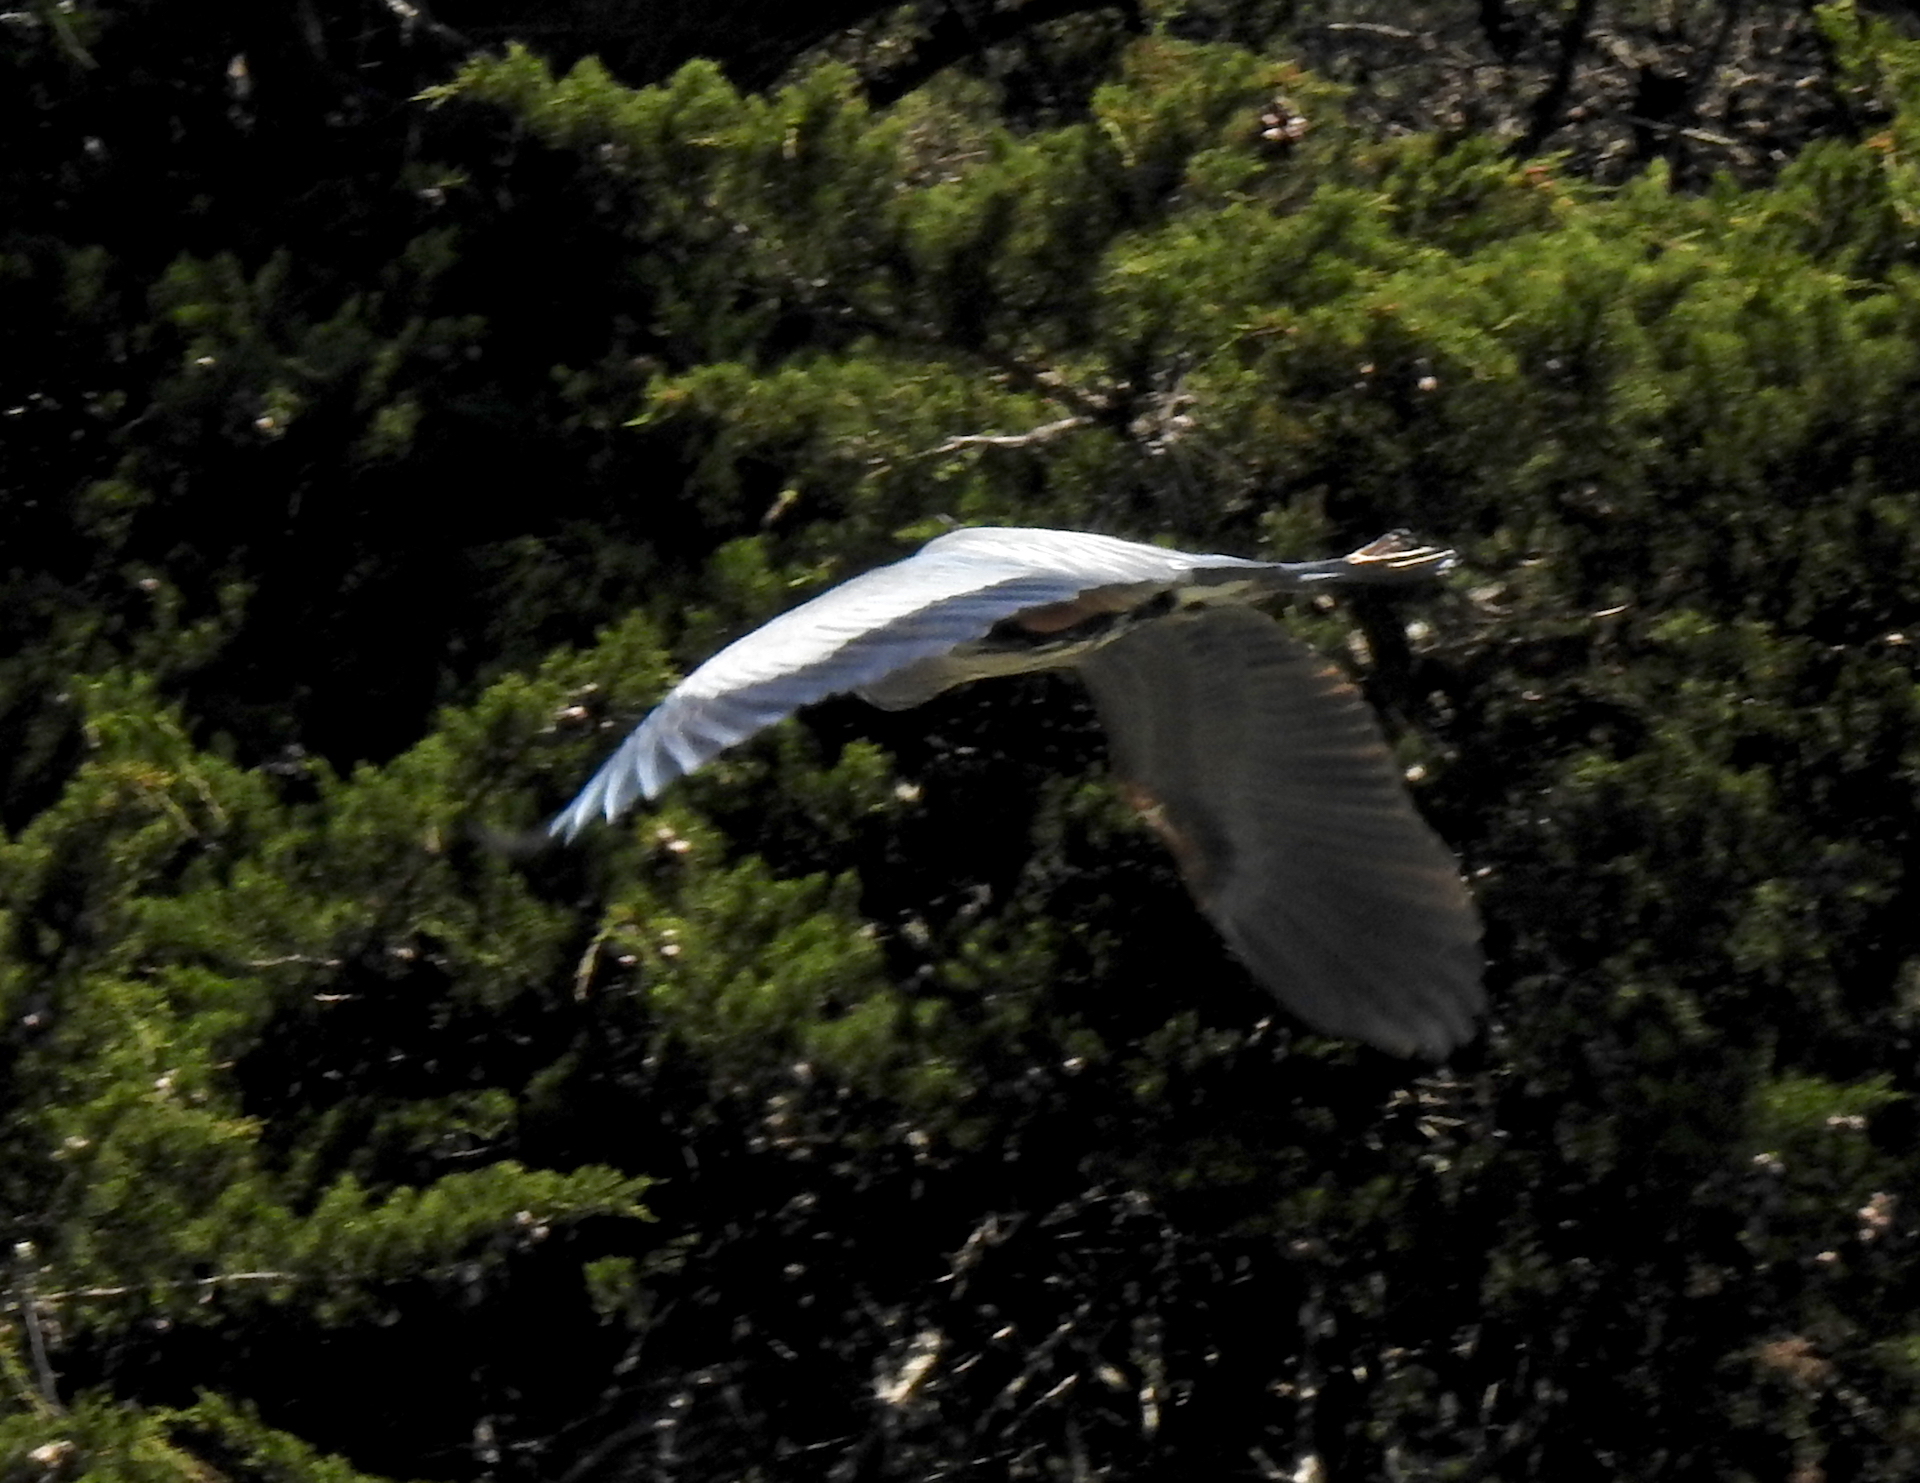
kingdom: Animalia
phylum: Chordata
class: Aves
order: Pelecaniformes
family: Ardeidae
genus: Ardea
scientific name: Ardea herodias
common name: Great blue heron
